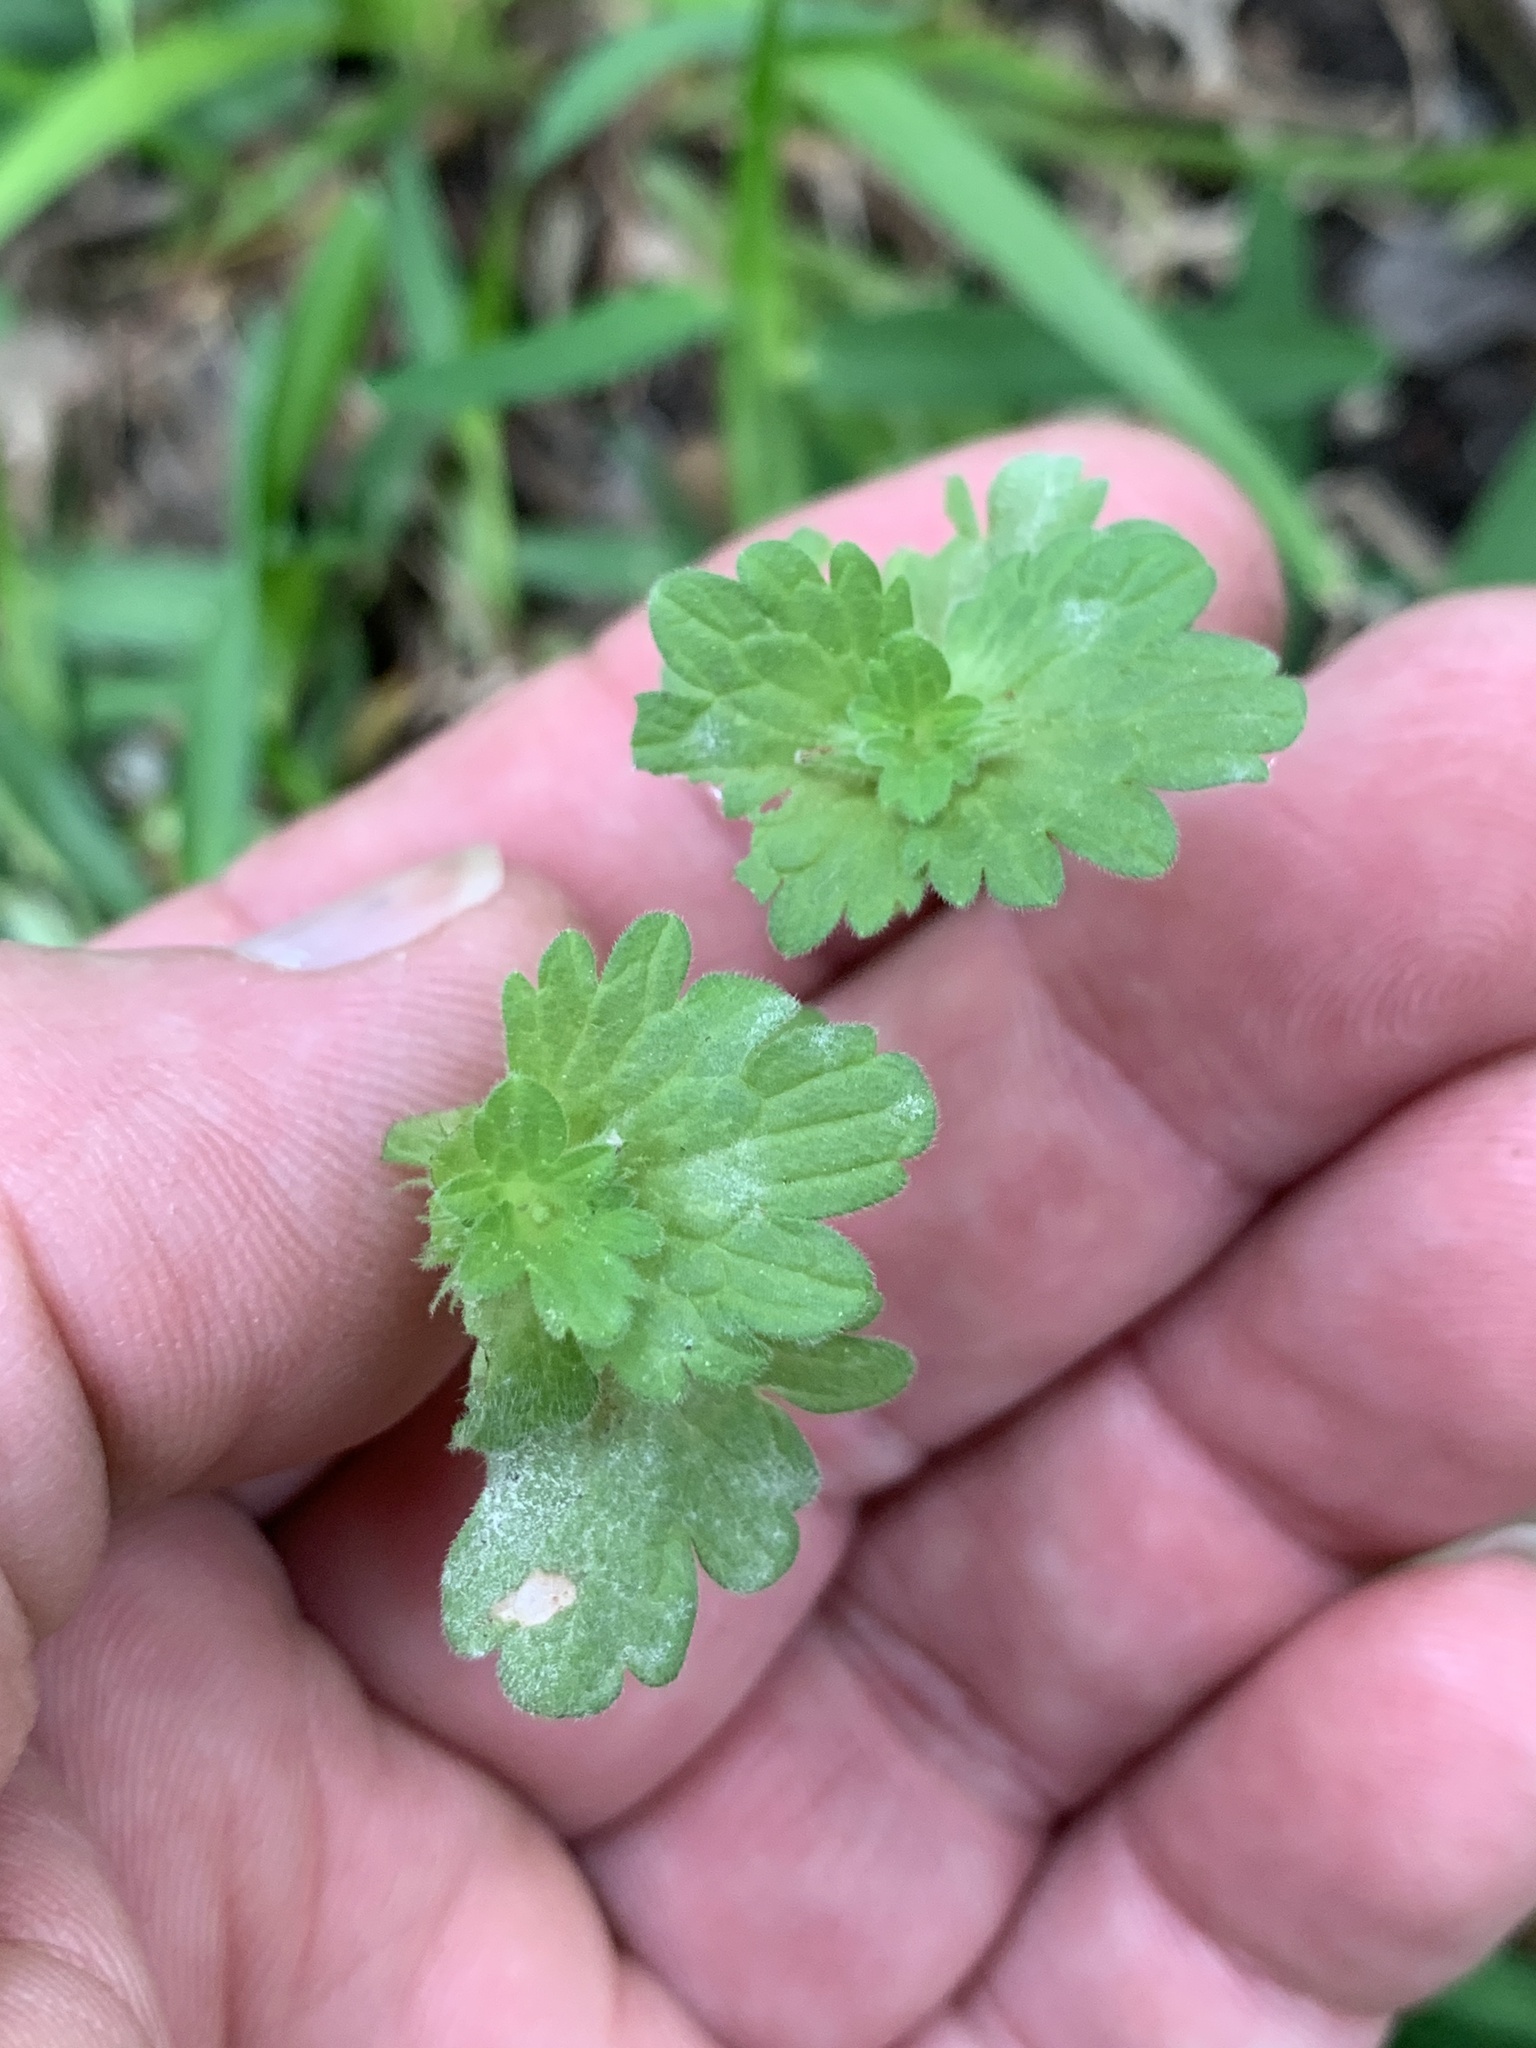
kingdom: Plantae
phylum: Tracheophyta
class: Magnoliopsida
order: Lamiales
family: Lamiaceae
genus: Lamium
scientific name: Lamium amplexicaule
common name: Henbit dead-nettle
